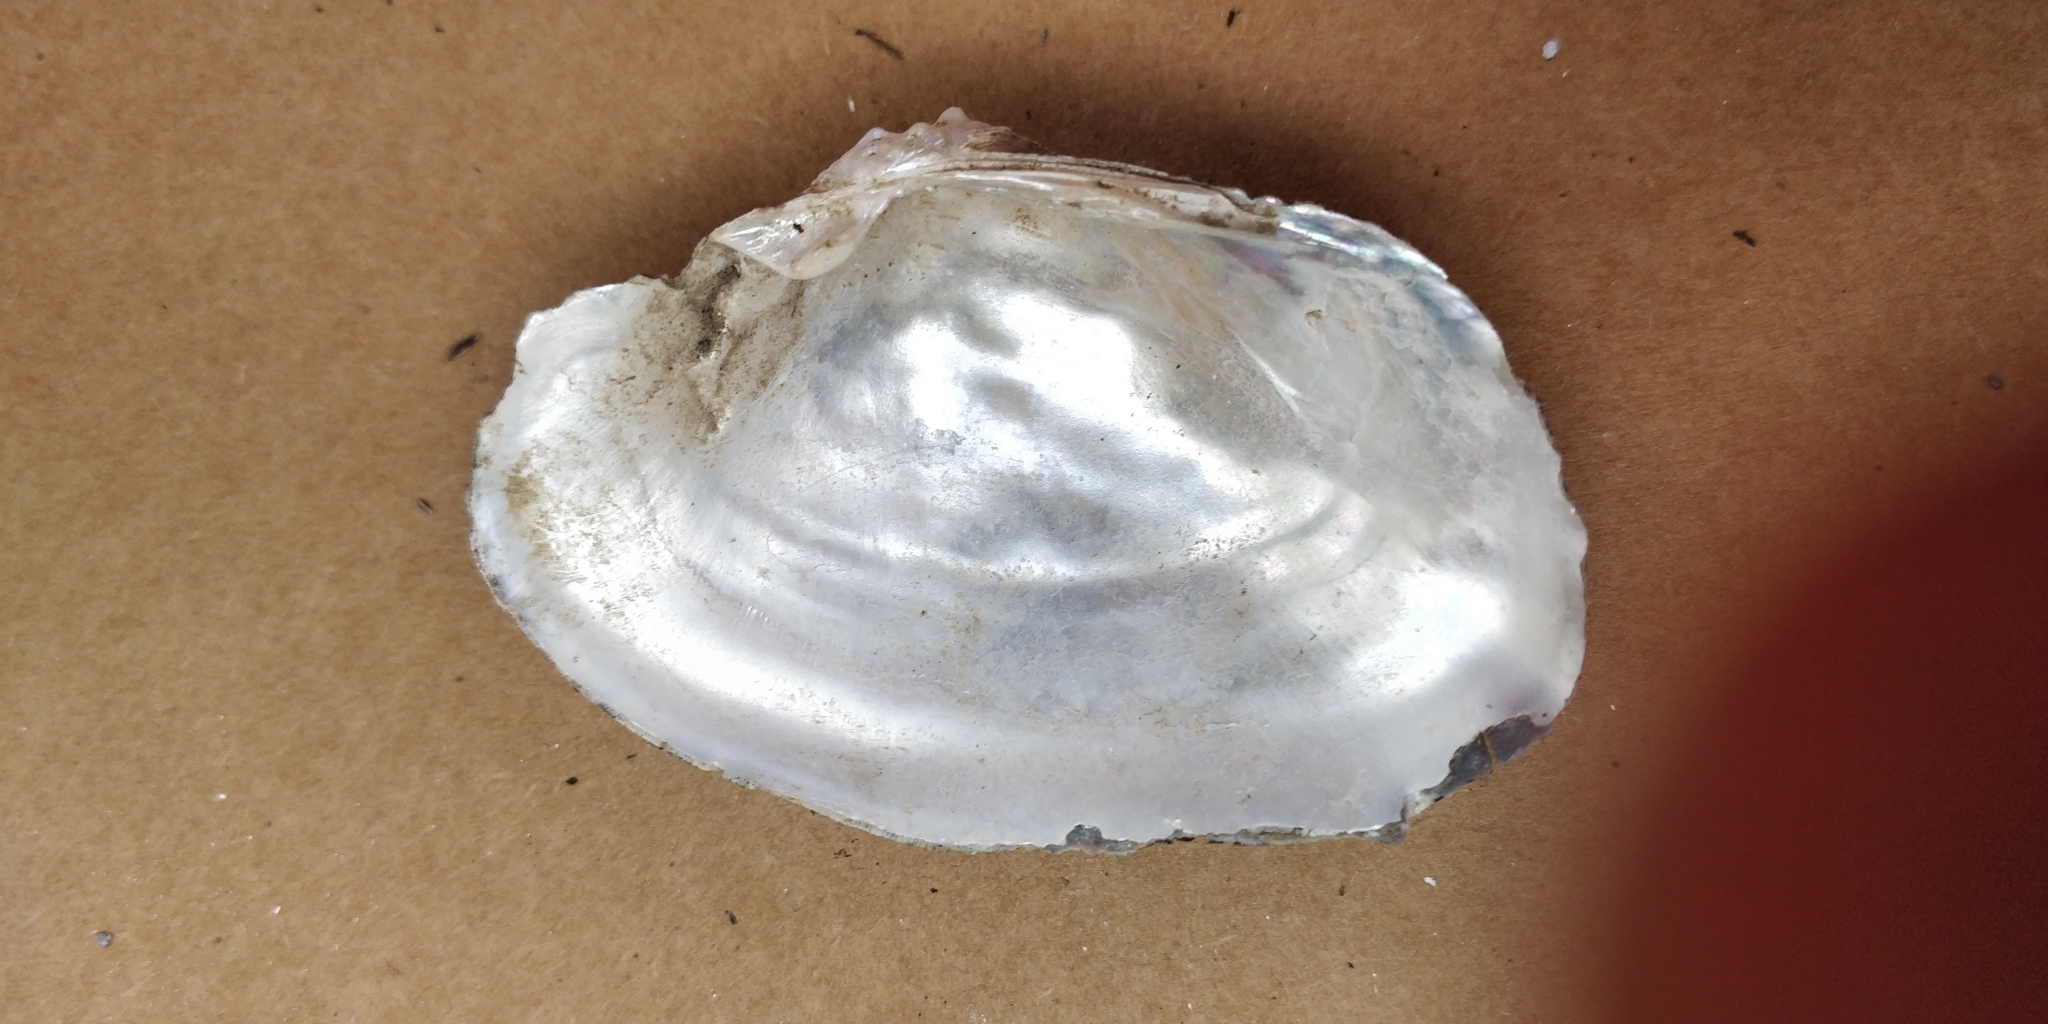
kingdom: Animalia
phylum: Mollusca
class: Bivalvia
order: Unionida
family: Unionidae
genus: Arcidens
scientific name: Arcidens confragosus
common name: Rock pocketbook
